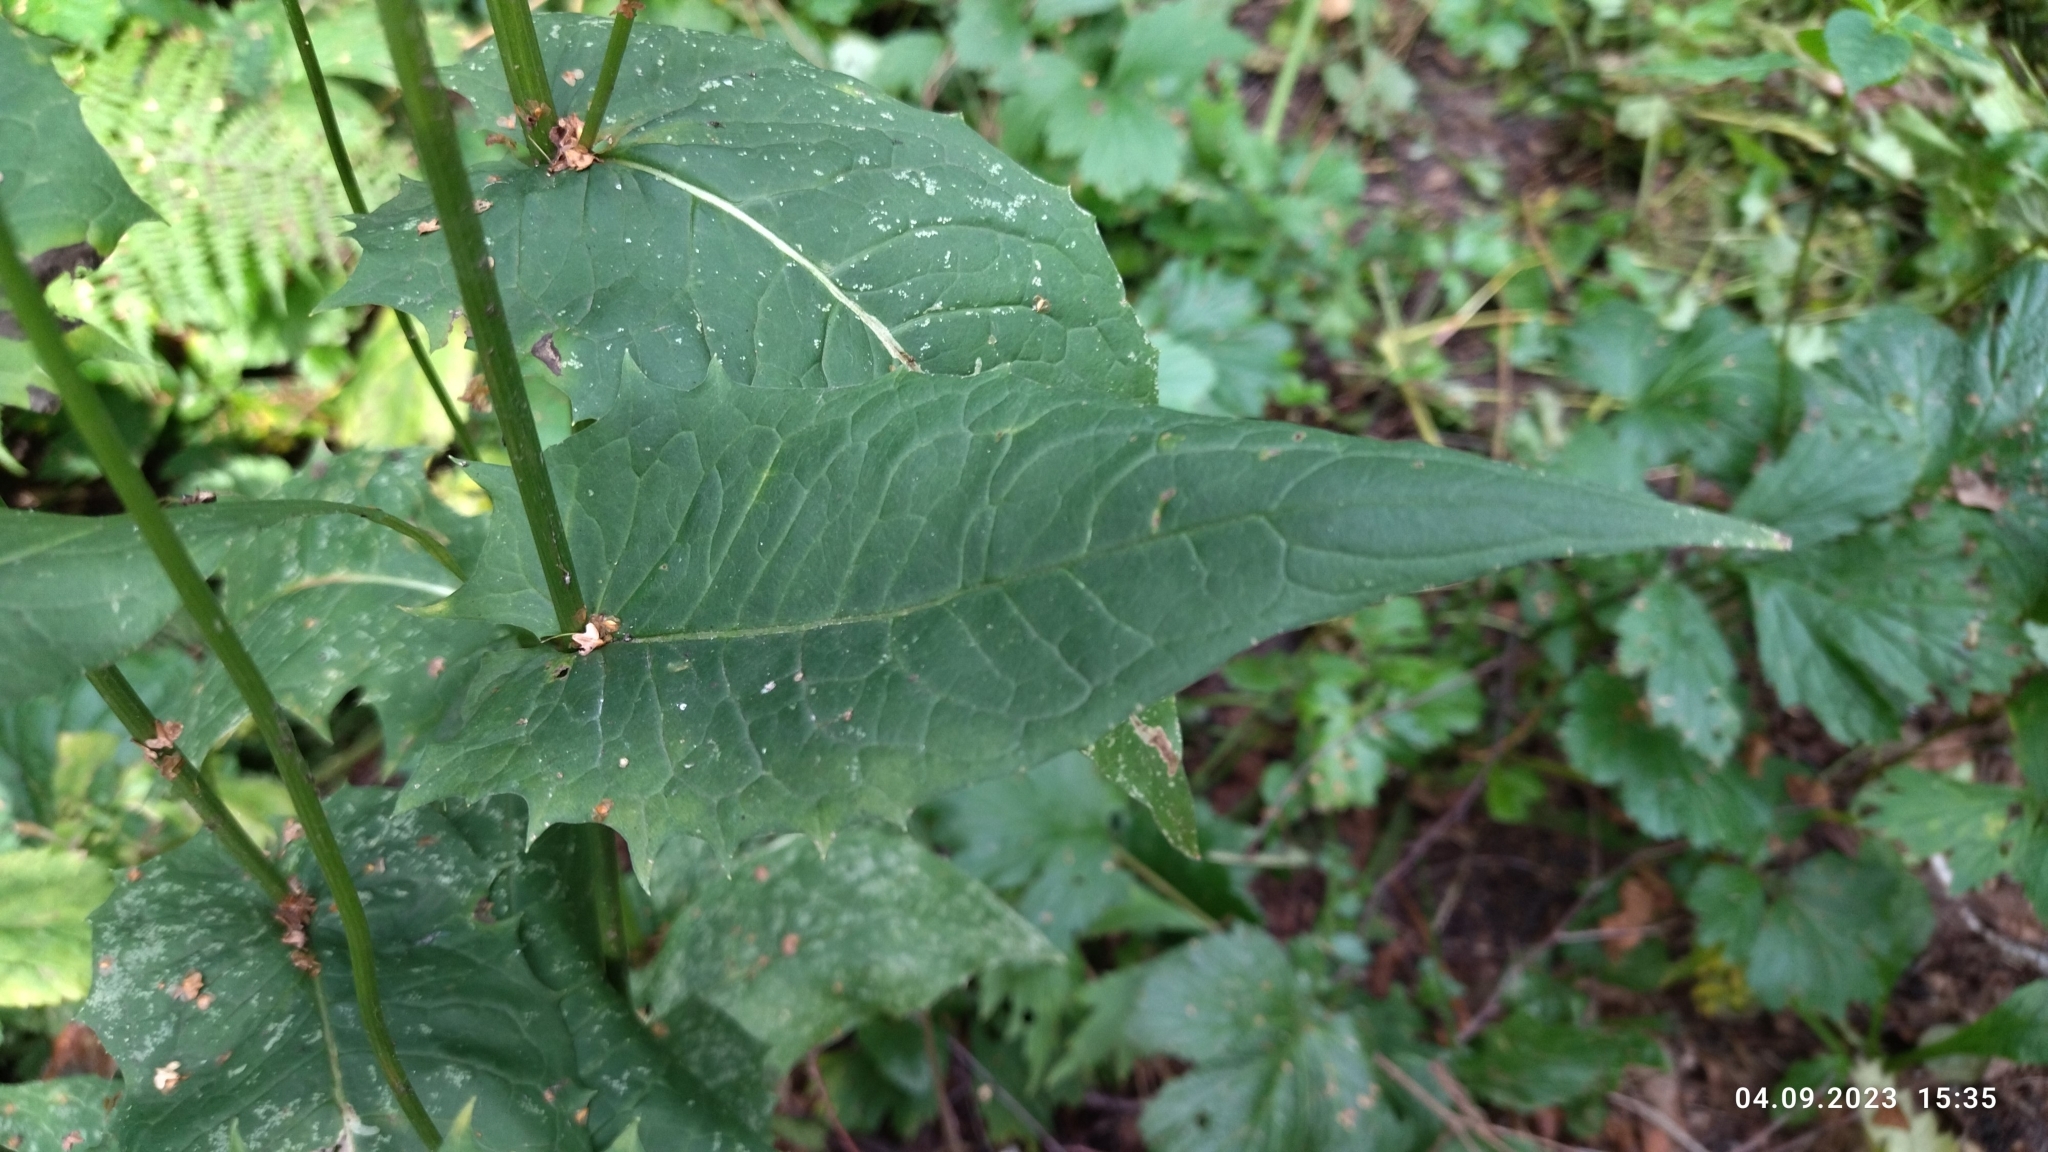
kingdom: Plantae
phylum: Tracheophyta
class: Magnoliopsida
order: Asterales
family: Asteraceae
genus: Crepis
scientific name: Crepis paludosa
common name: Marsh hawk's-beard
